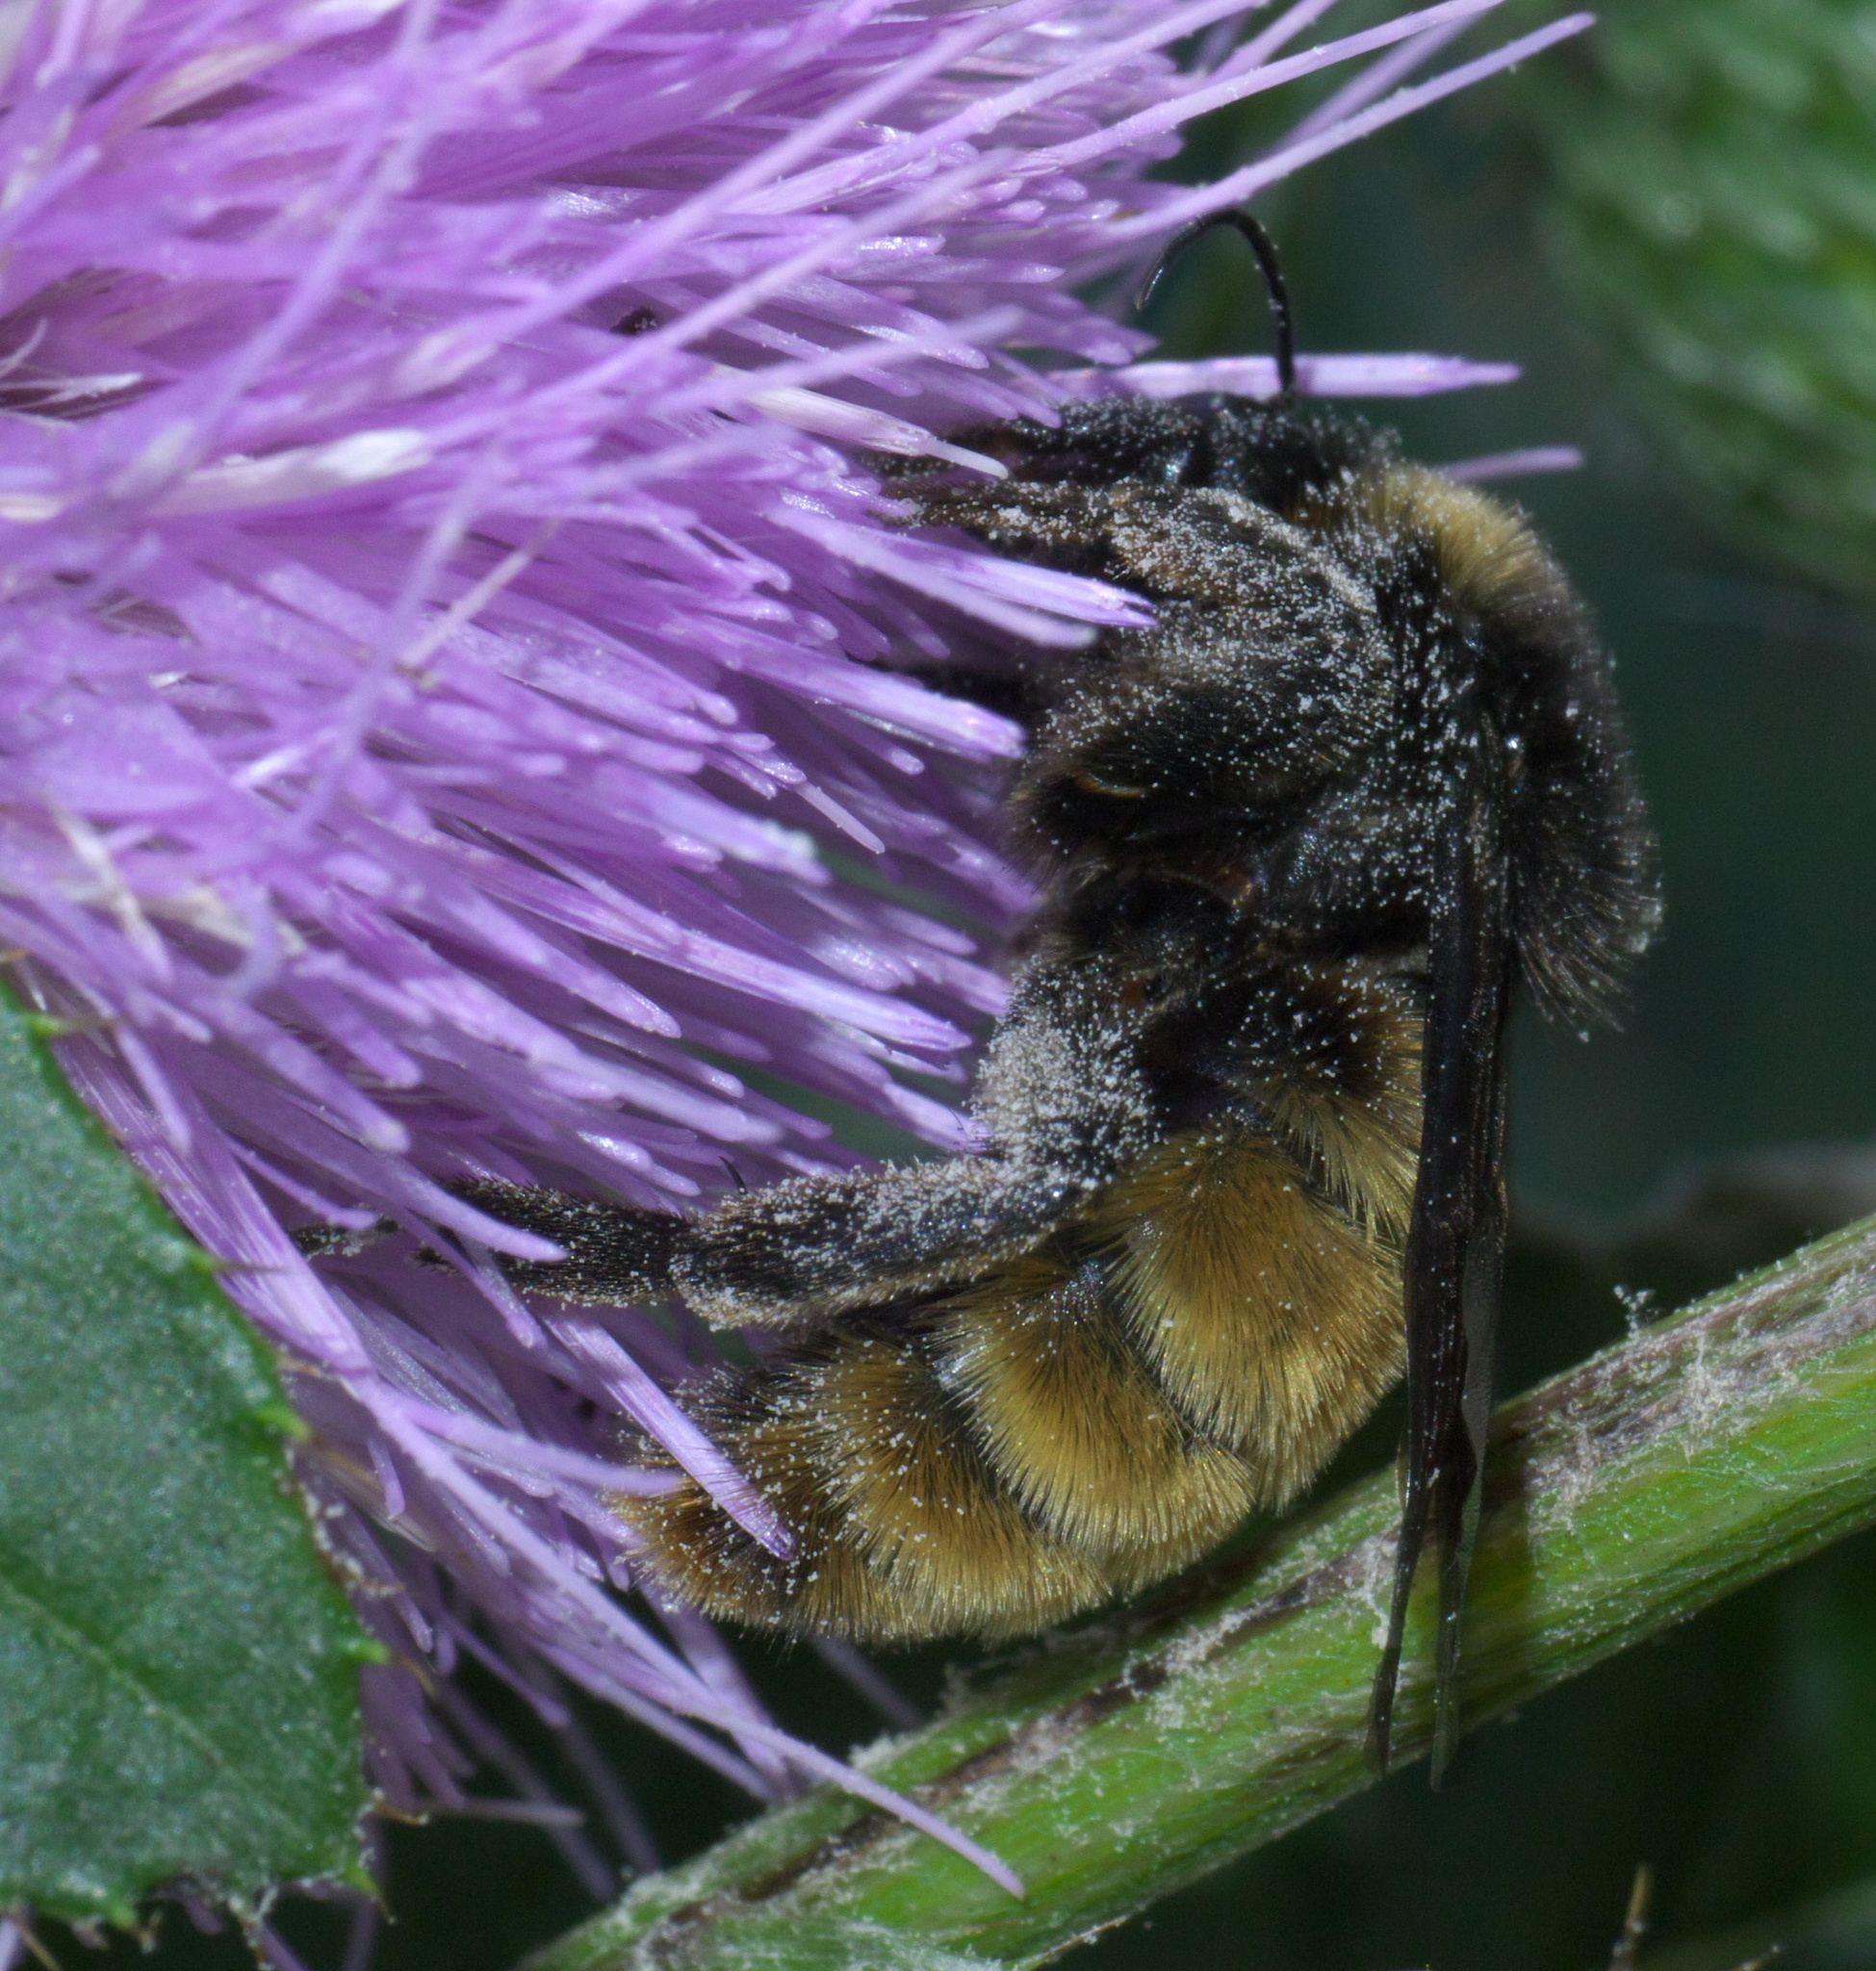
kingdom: Animalia
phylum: Arthropoda
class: Insecta
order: Hymenoptera
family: Apidae
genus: Bombus
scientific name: Bombus pensylvanicus
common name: Bumble bee
